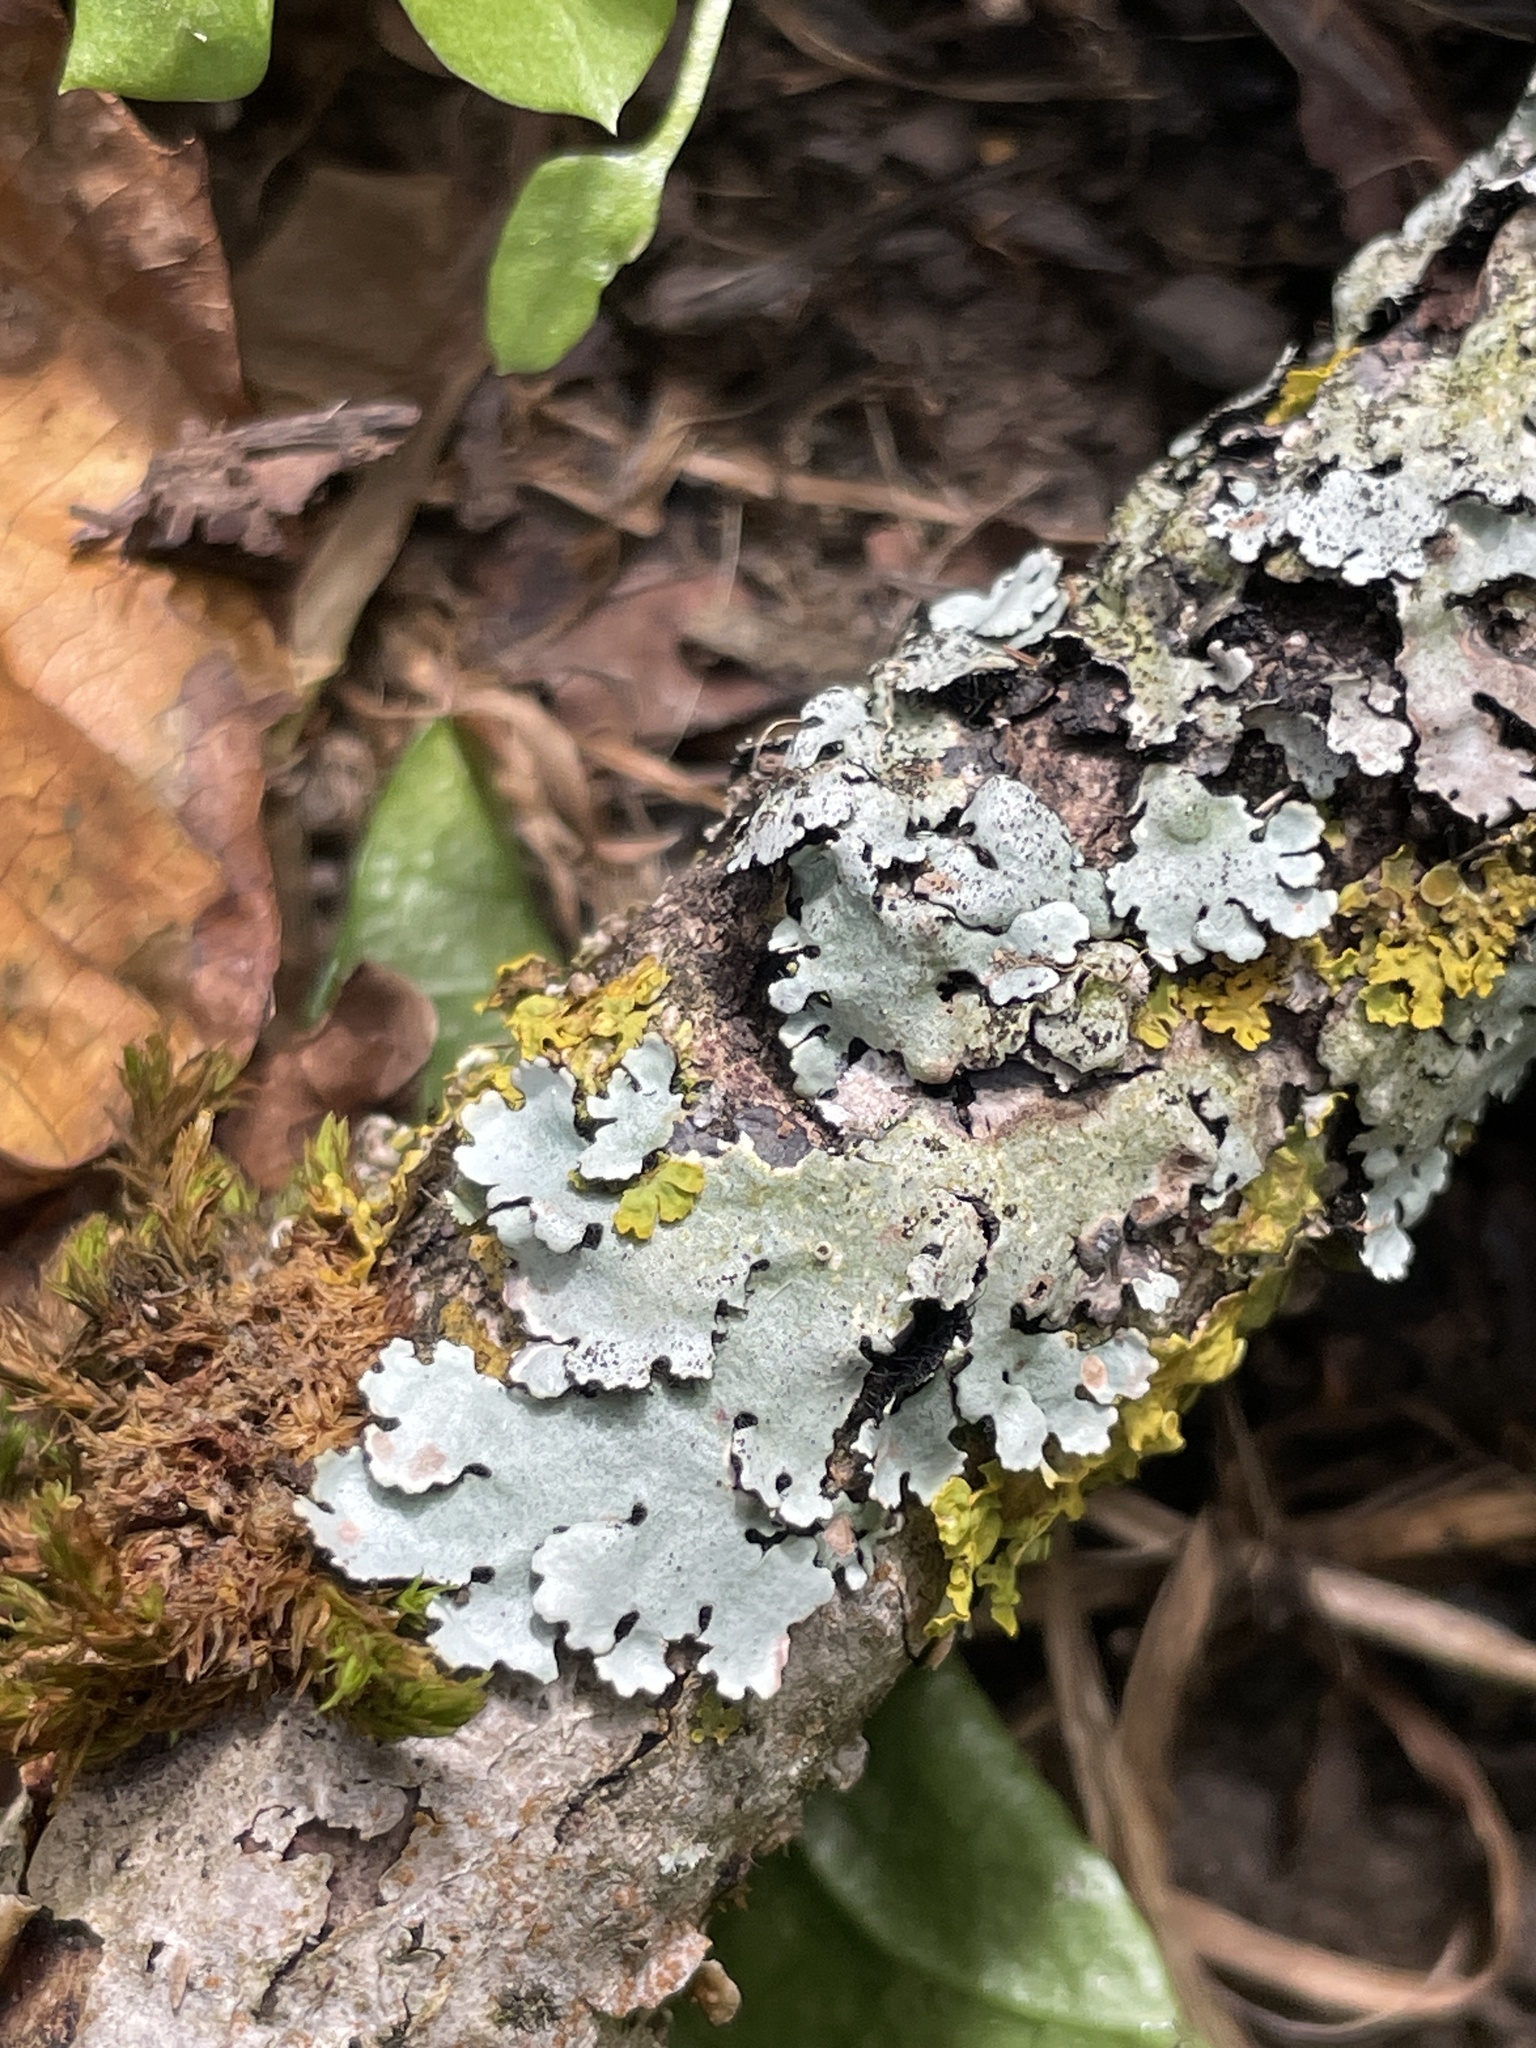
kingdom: Fungi
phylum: Ascomycota
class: Lecanoromycetes
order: Lecanorales
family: Parmeliaceae
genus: Parmelina
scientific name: Parmelina pastillifera
